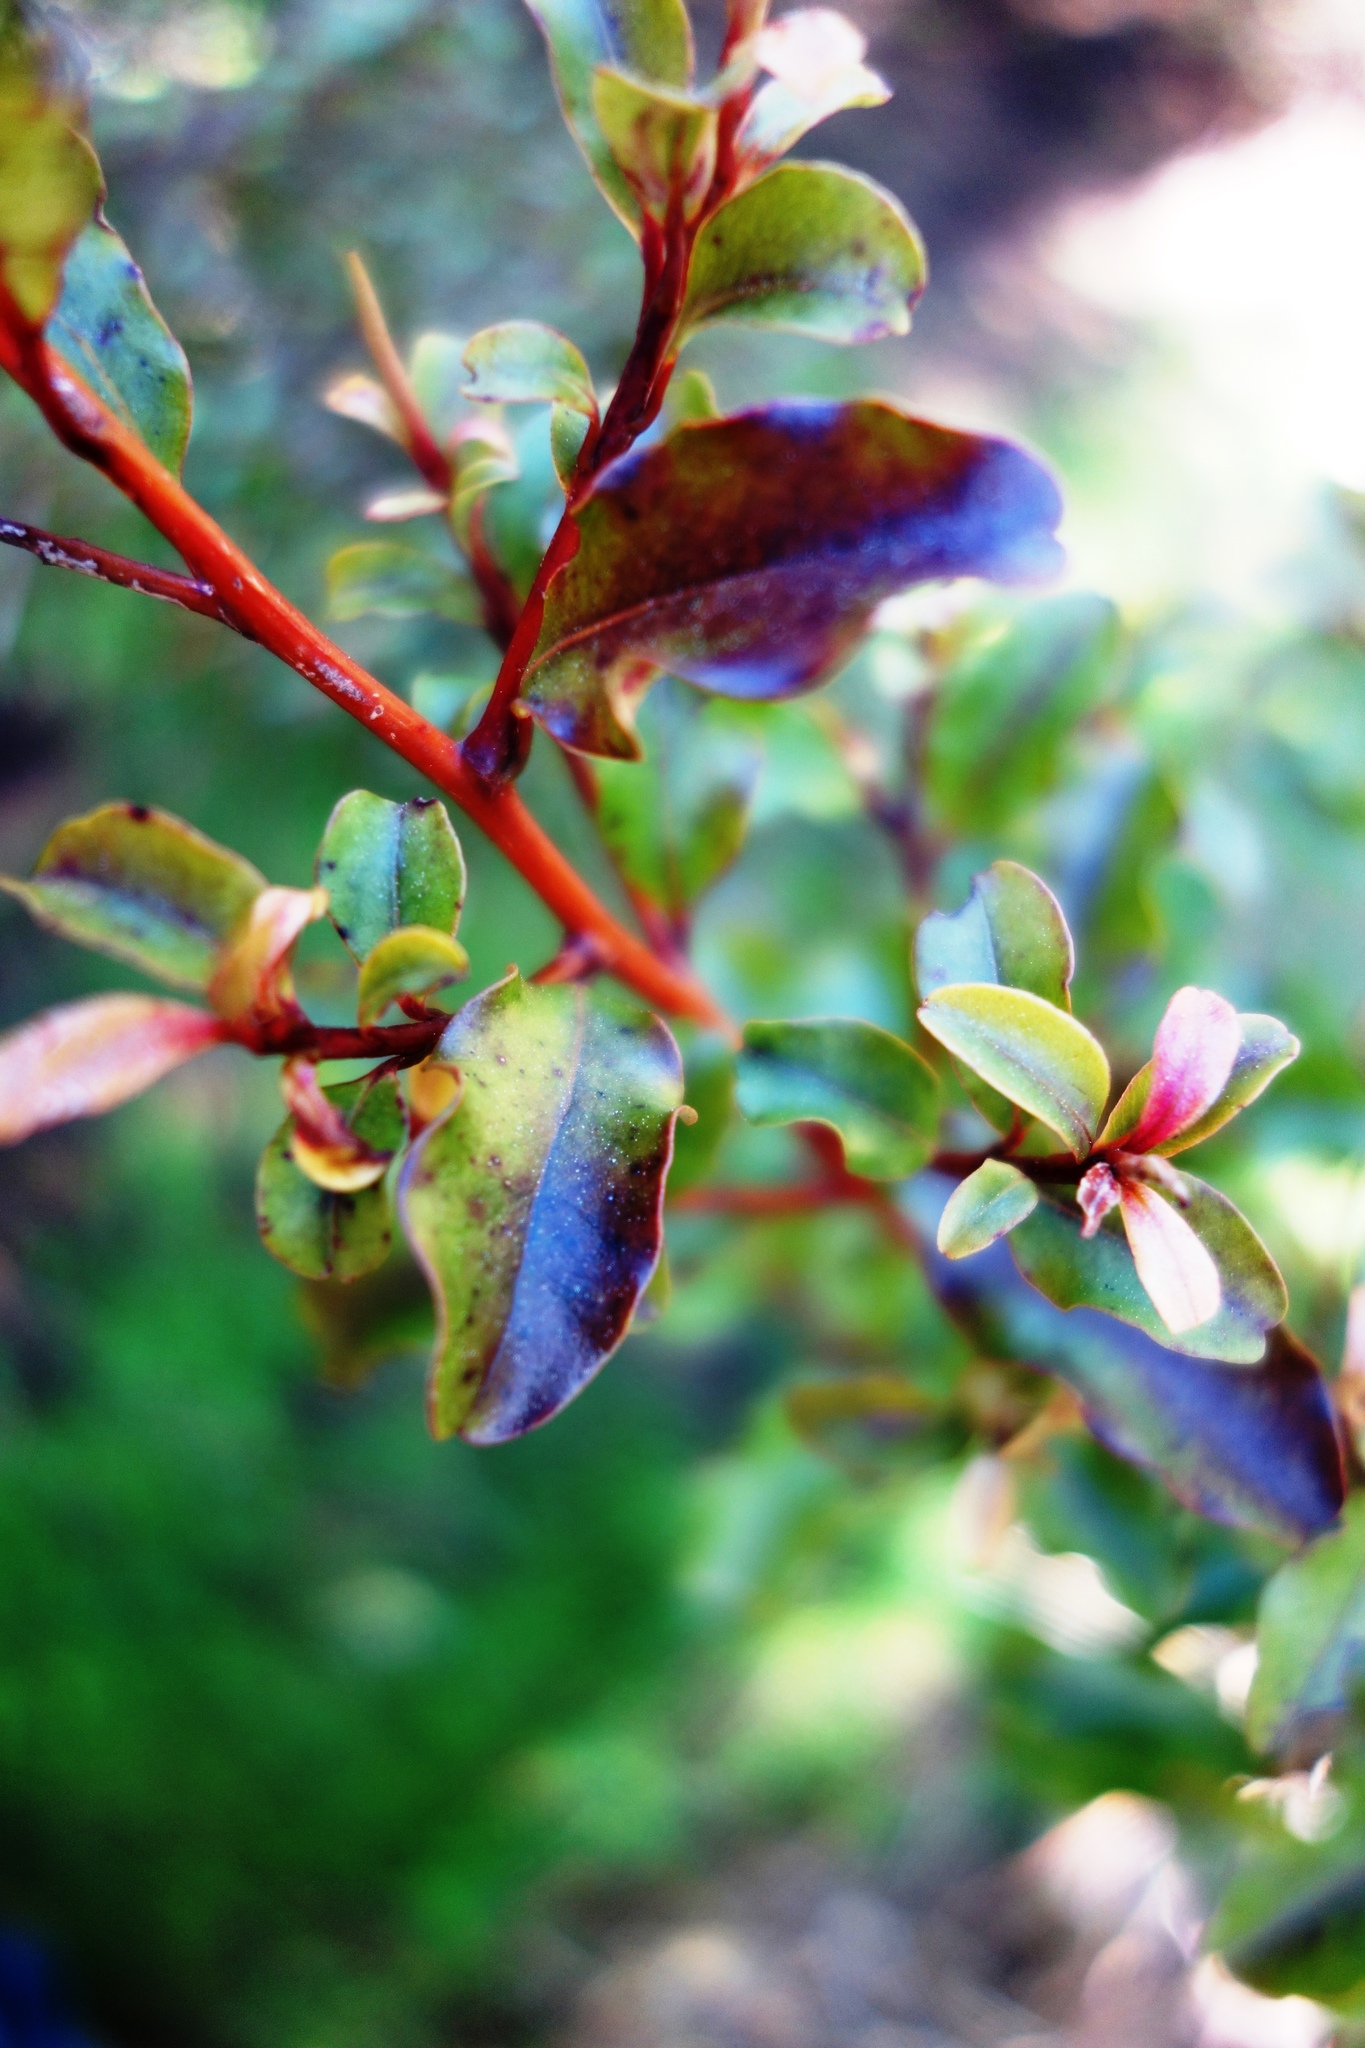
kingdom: Plantae
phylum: Tracheophyta
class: Magnoliopsida
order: Ericales
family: Primulaceae
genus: Myrsine
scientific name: Myrsine australis
